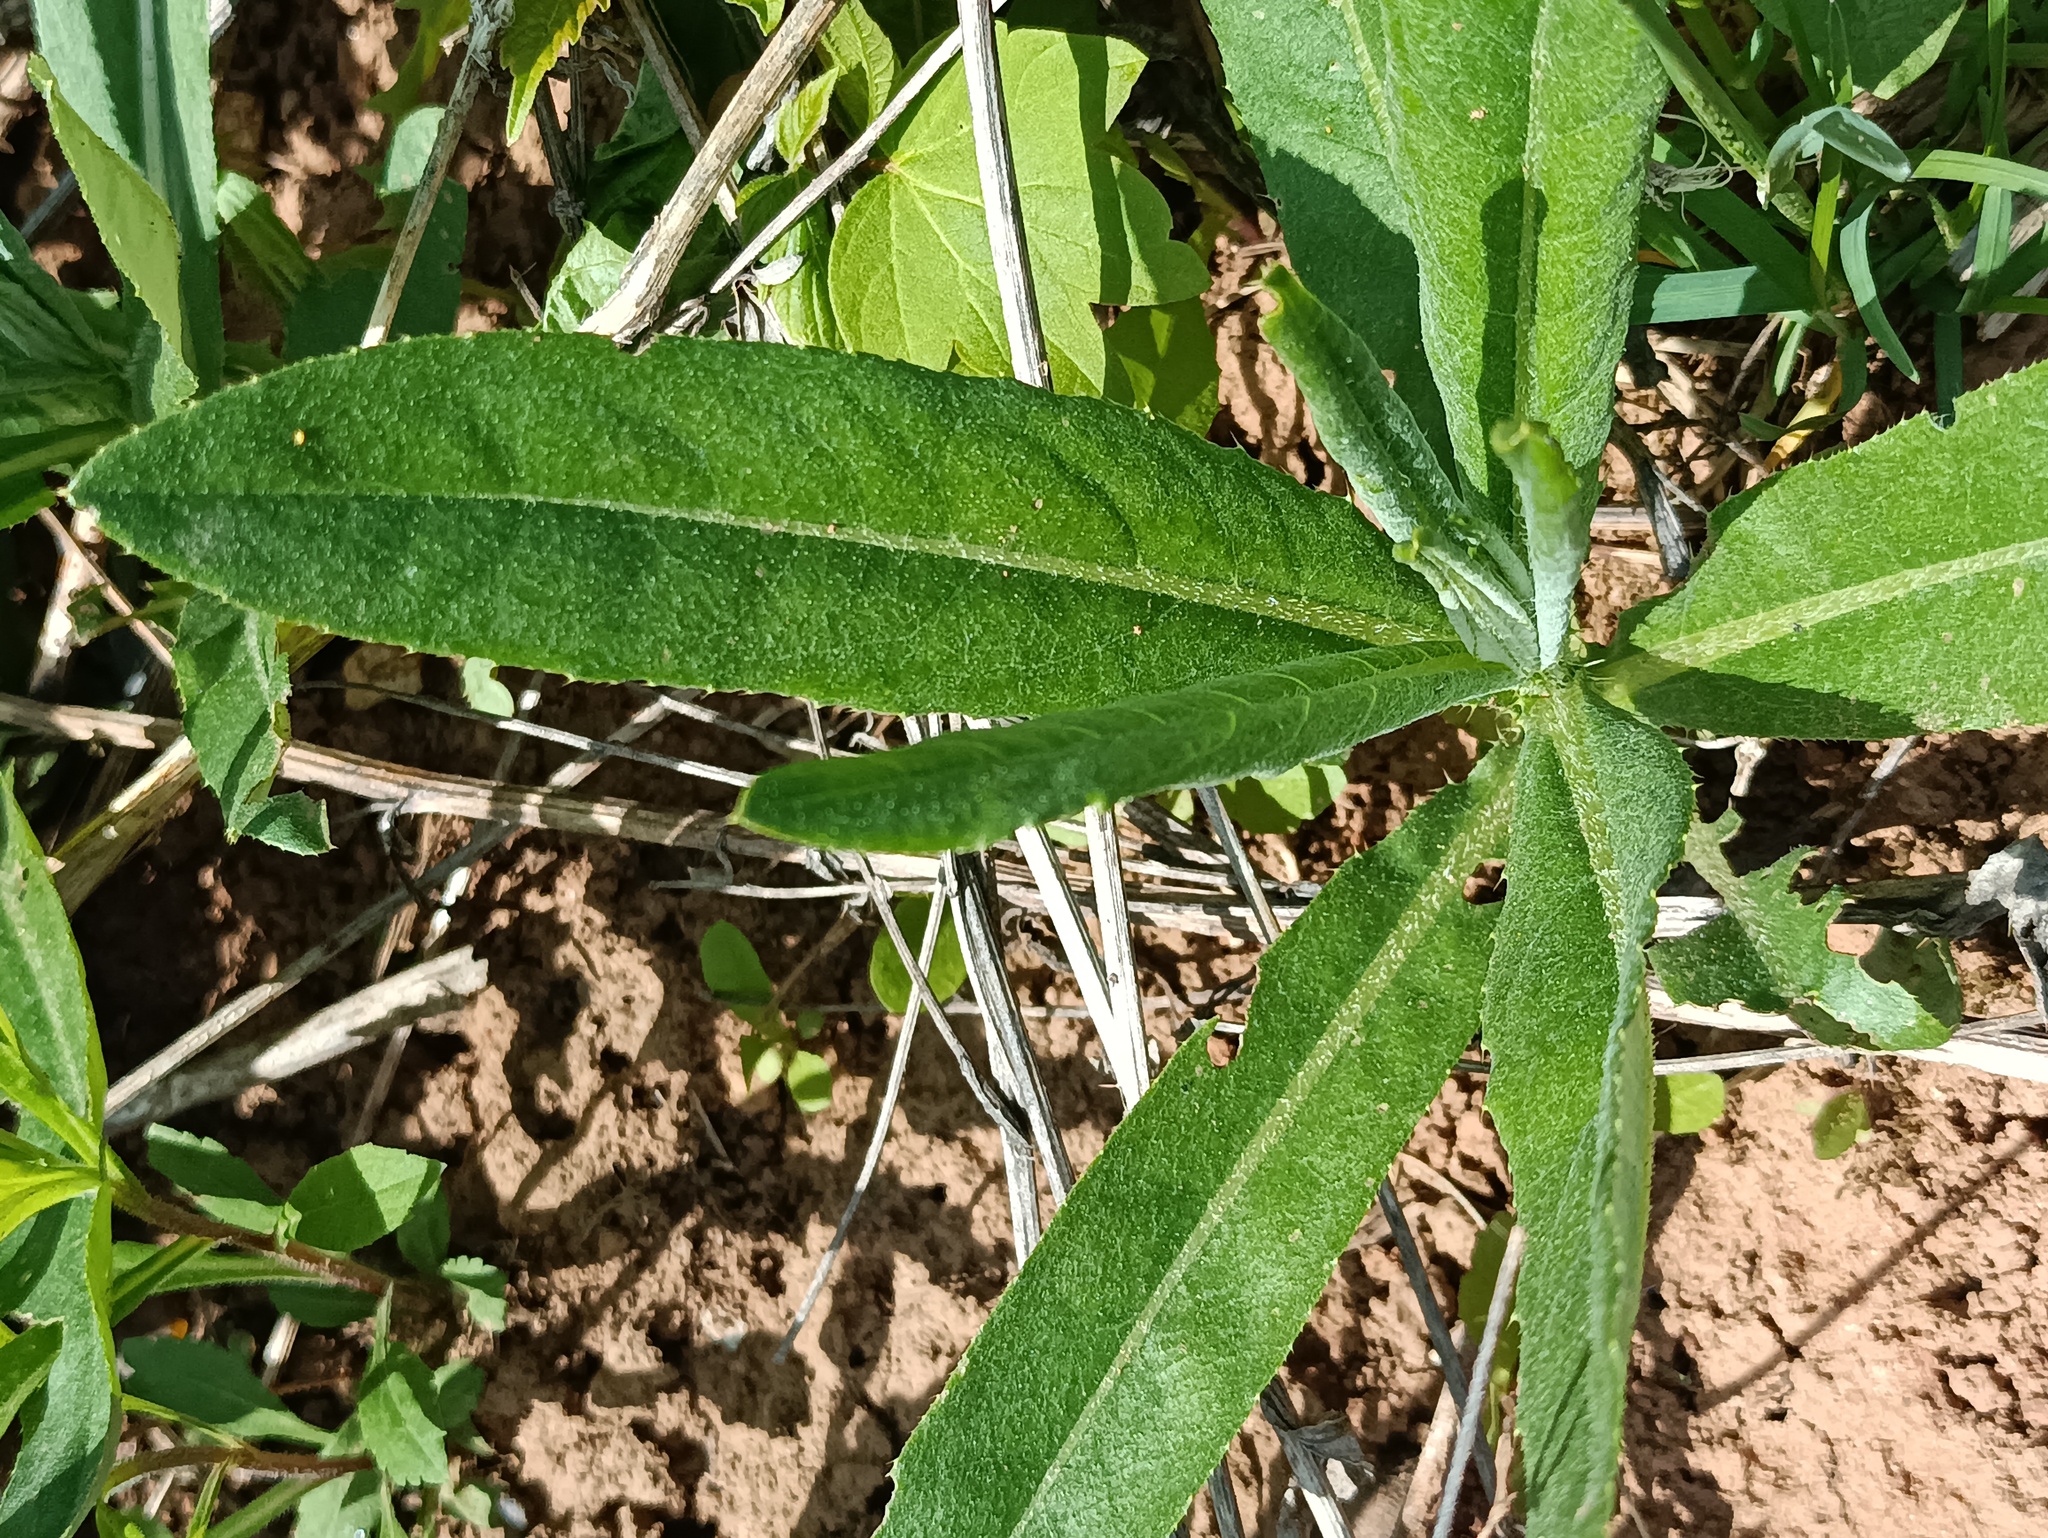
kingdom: Plantae
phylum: Tracheophyta
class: Magnoliopsida
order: Asterales
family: Asteraceae
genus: Cirsium
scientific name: Cirsium arvense
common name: Creeping thistle
